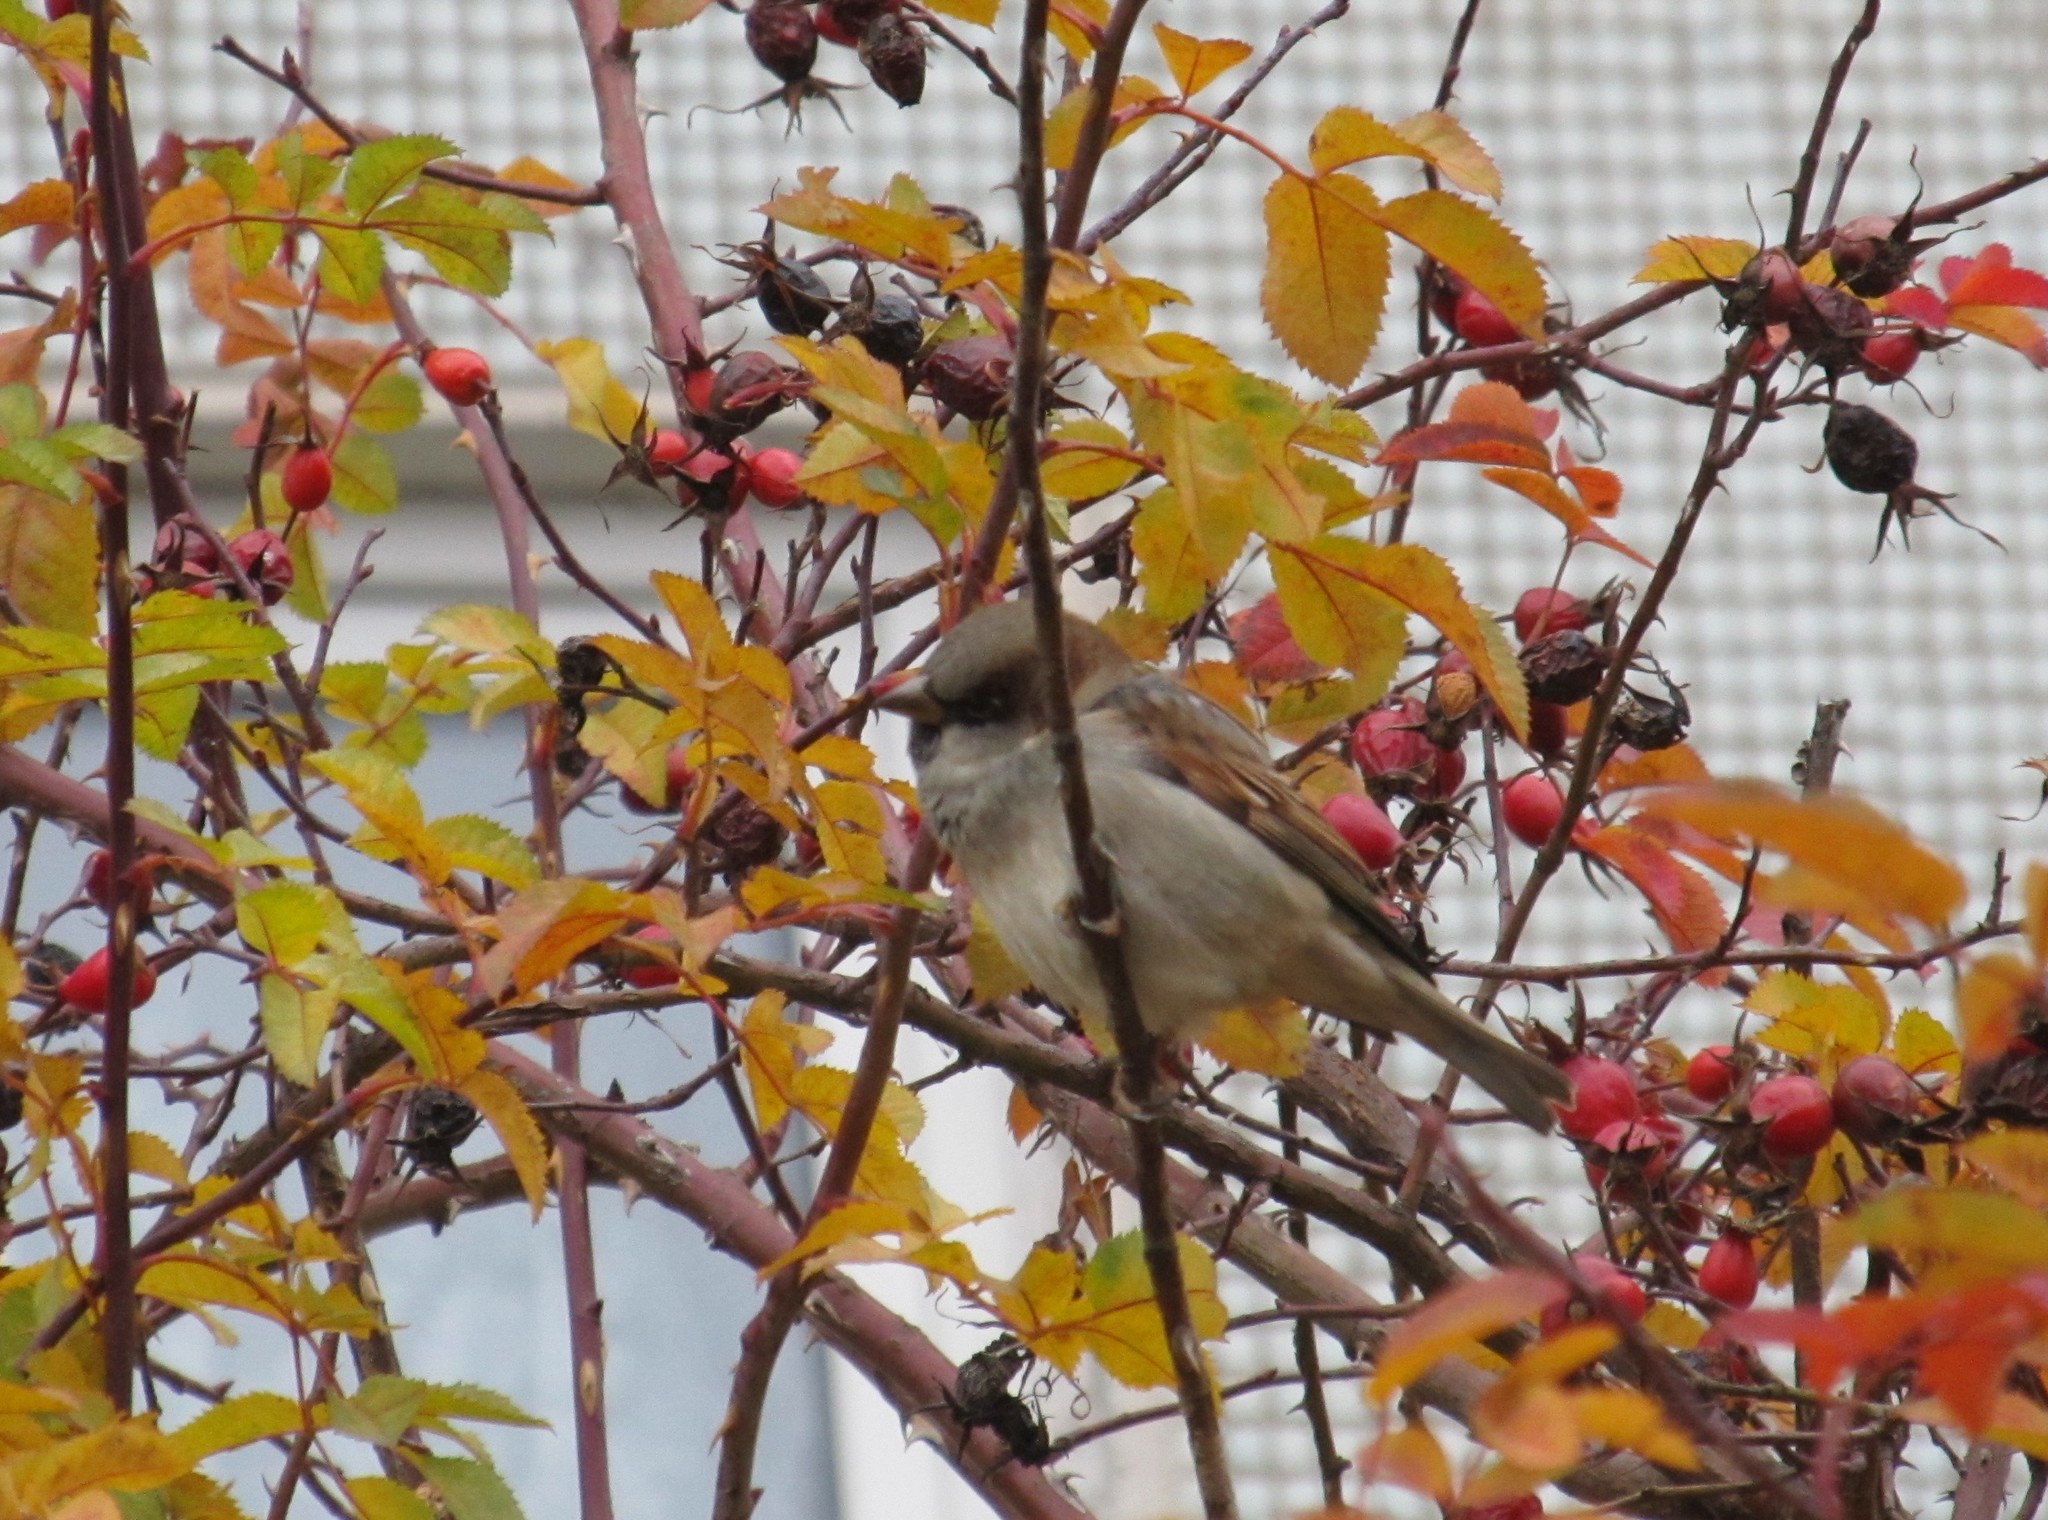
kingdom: Animalia
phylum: Chordata
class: Aves
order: Passeriformes
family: Passeridae
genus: Passer
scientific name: Passer domesticus
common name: House sparrow
